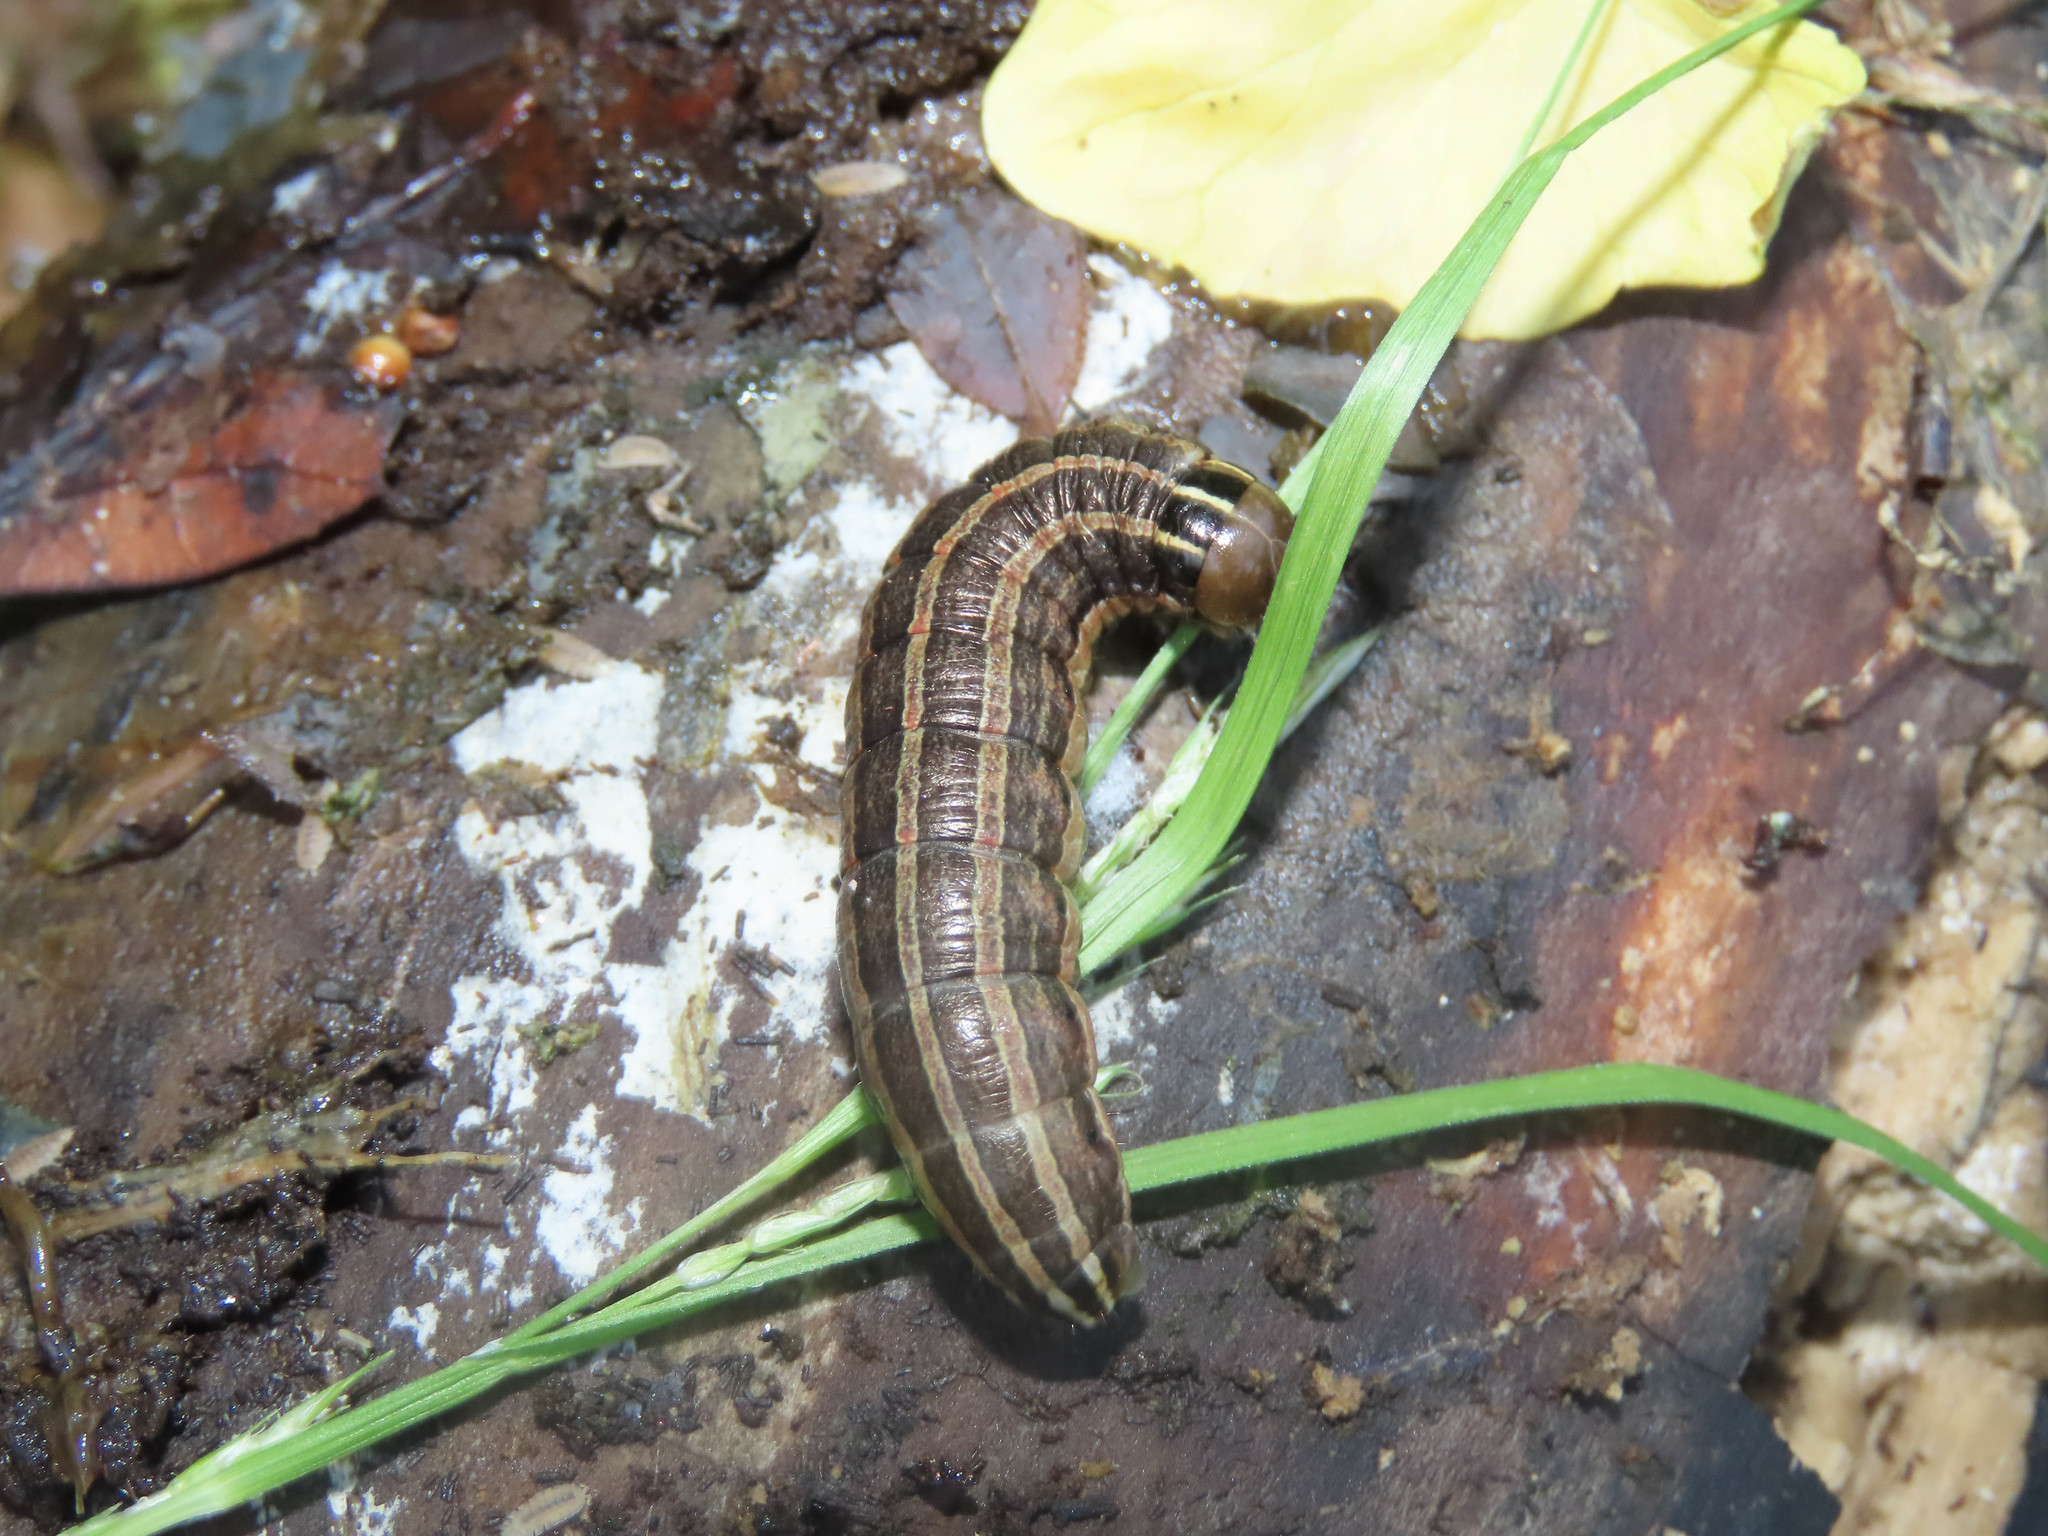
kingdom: Animalia
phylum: Arthropoda
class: Insecta
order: Lepidoptera
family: Noctuidae
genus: Nephelodes
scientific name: Nephelodes minians
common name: Bronzed cutworm
